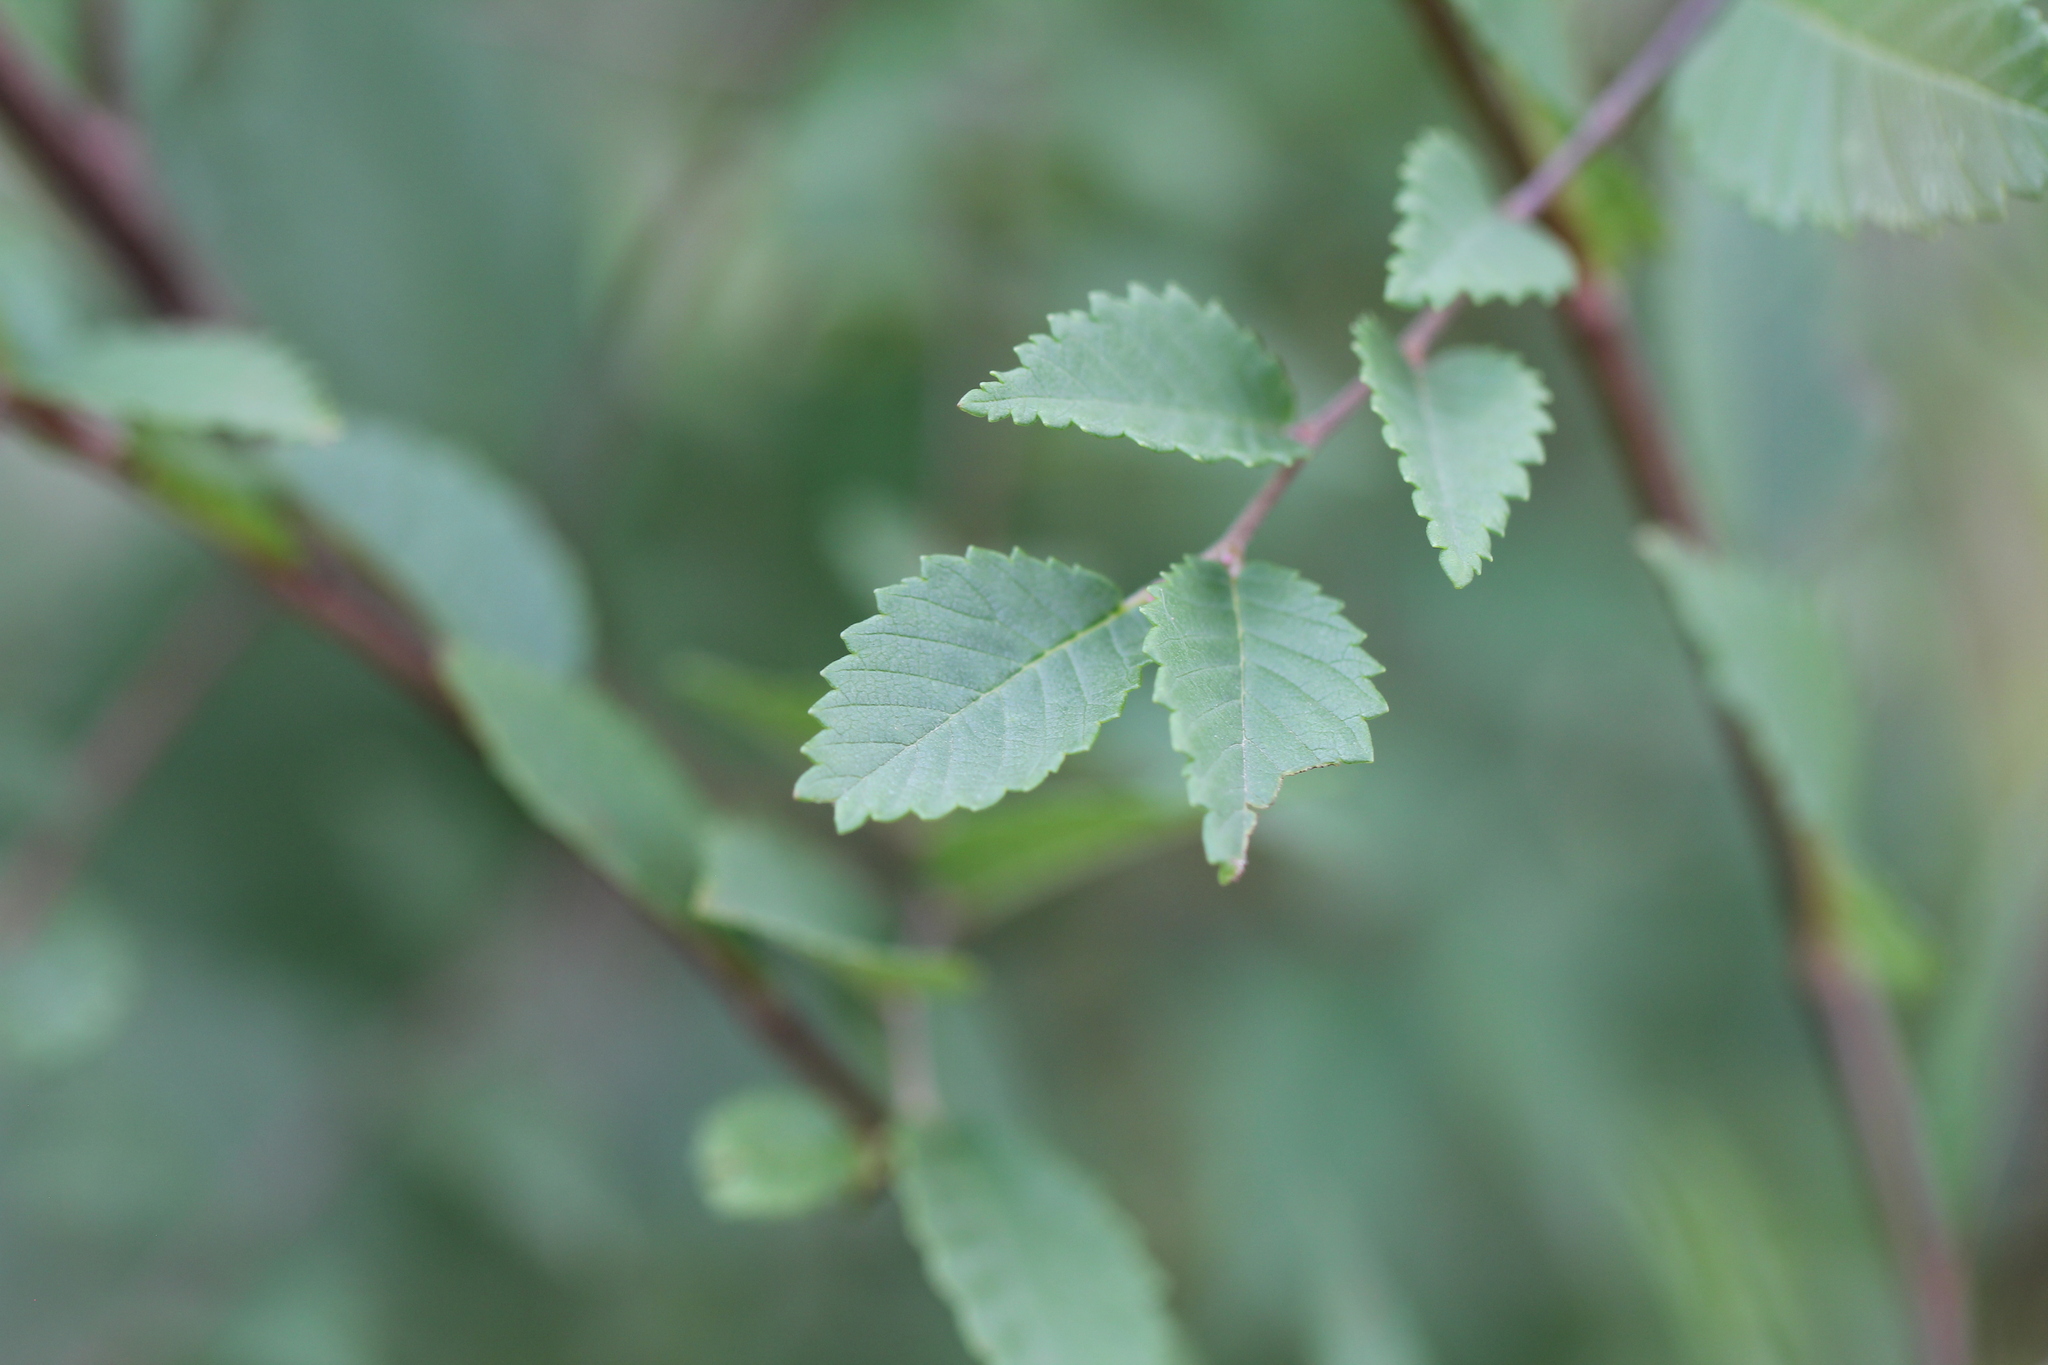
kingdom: Plantae
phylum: Tracheophyta
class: Magnoliopsida
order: Rosales
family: Ulmaceae
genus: Ulmus
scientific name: Ulmus pumila
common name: Siberian elm
